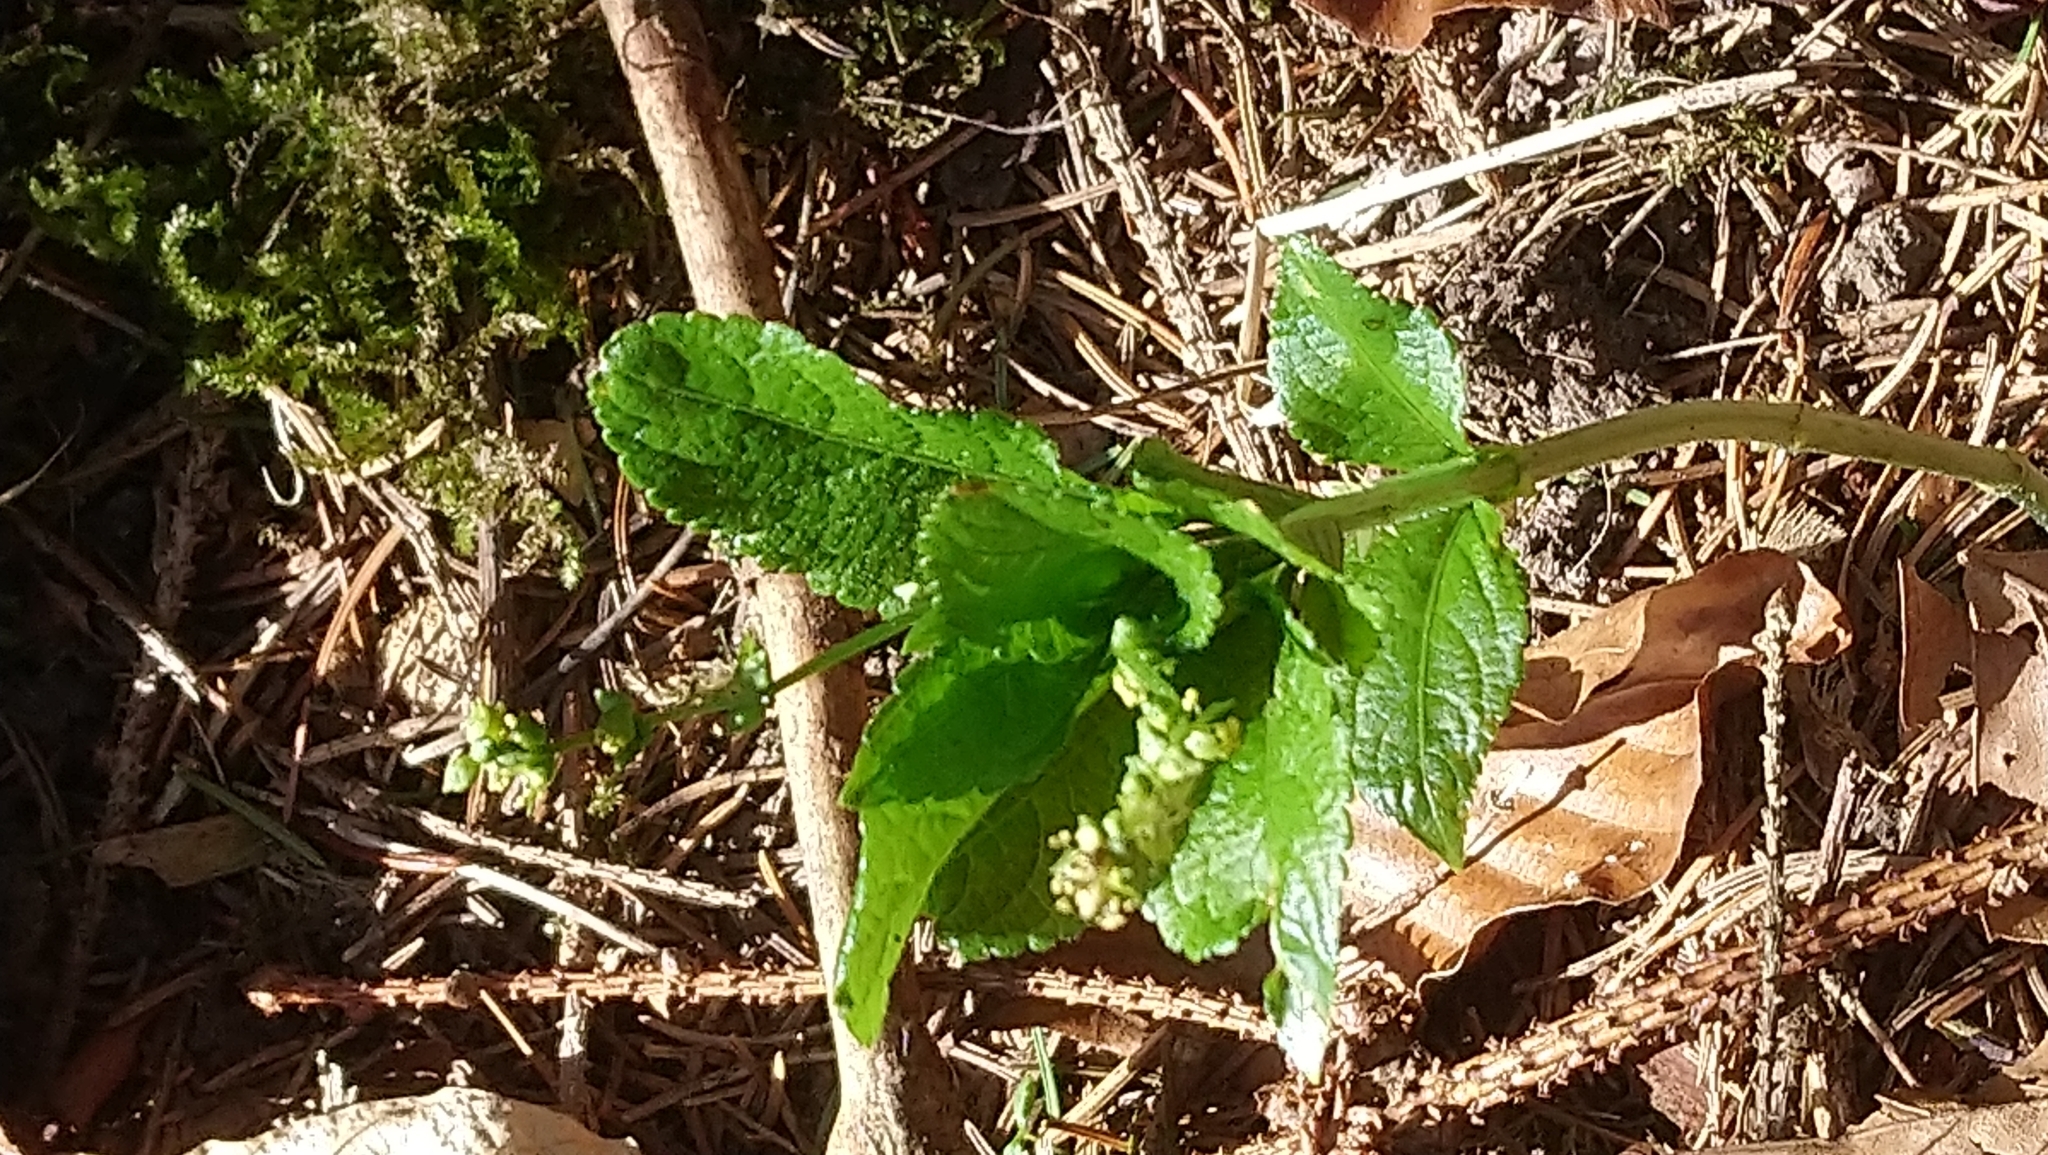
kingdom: Plantae
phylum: Tracheophyta
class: Magnoliopsida
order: Malpighiales
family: Euphorbiaceae
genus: Mercurialis
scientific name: Mercurialis perennis
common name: Dog mercury
